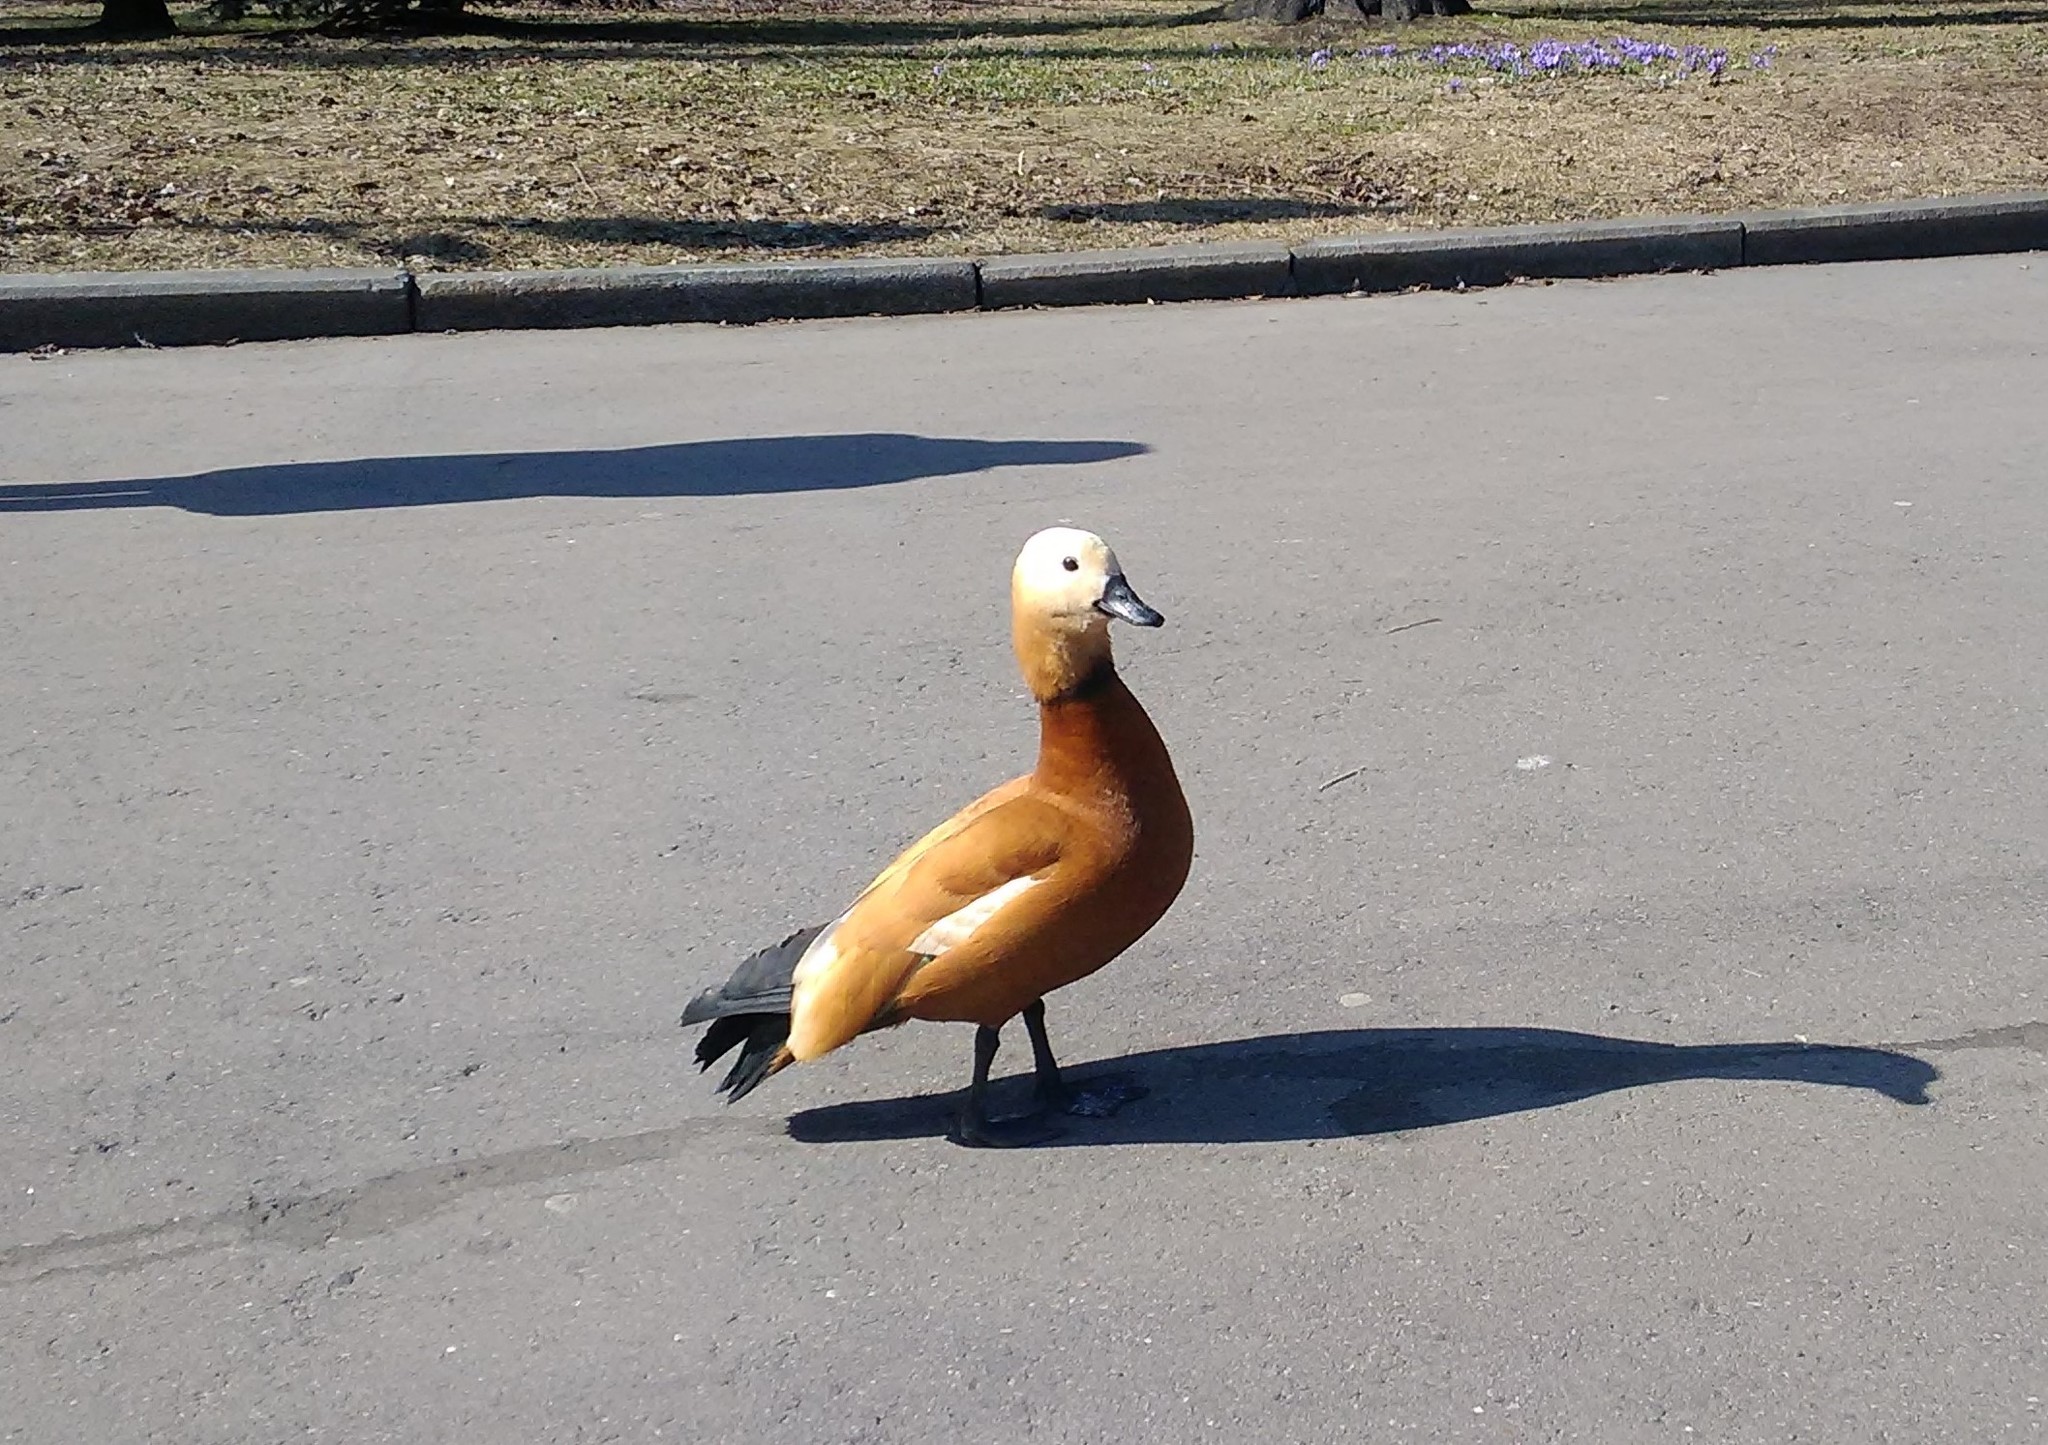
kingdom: Animalia
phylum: Chordata
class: Aves
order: Anseriformes
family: Anatidae
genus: Tadorna
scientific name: Tadorna ferruginea
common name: Ruddy shelduck
